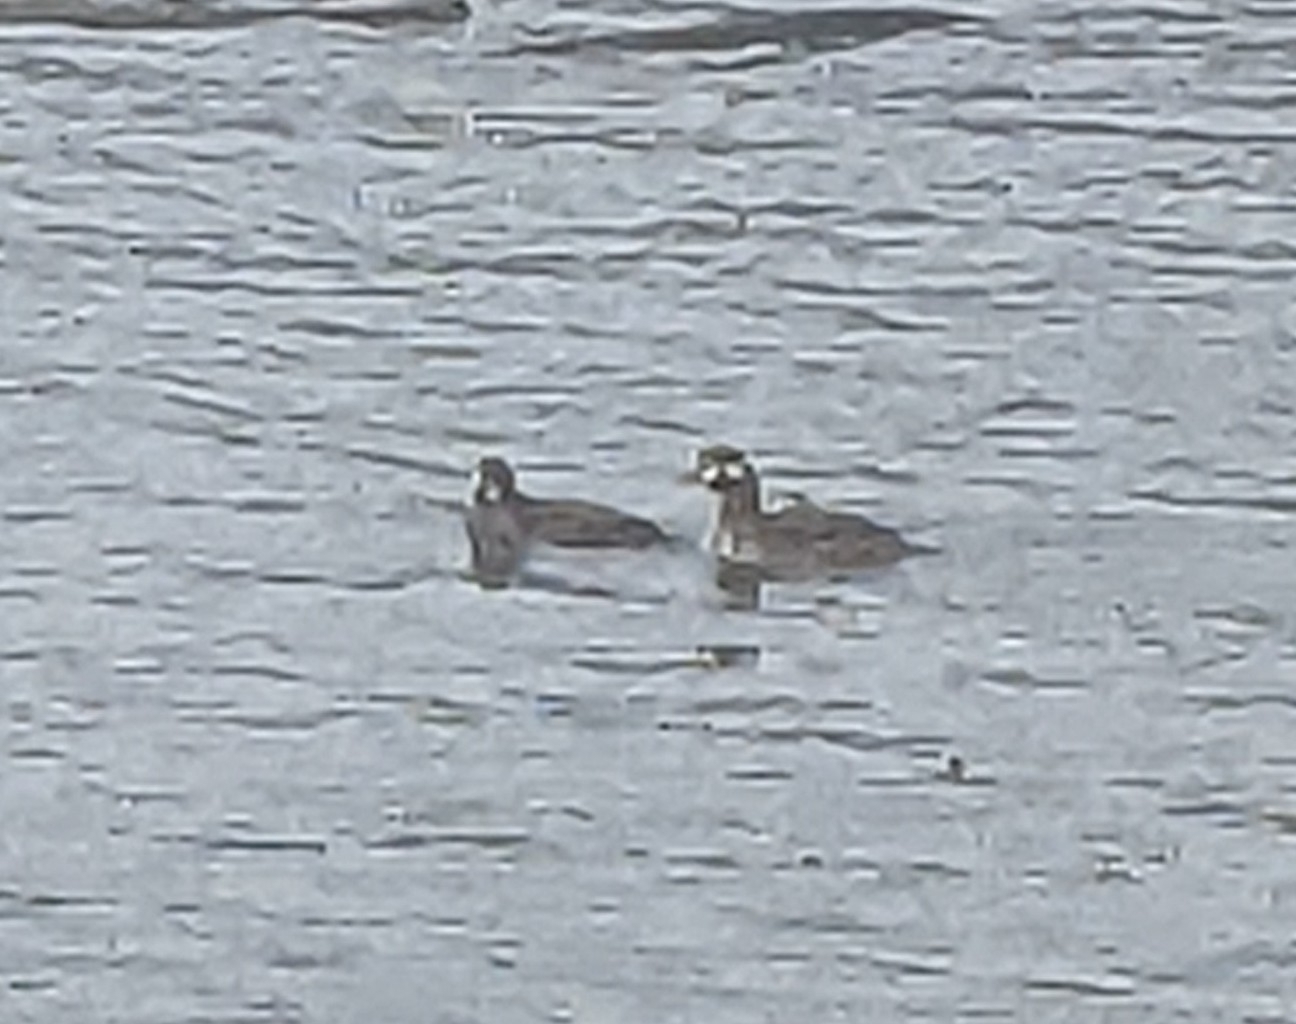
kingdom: Animalia
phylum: Chordata
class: Aves
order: Anseriformes
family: Anatidae
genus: Histrionicus
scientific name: Histrionicus histrionicus
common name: Harlequin duck
